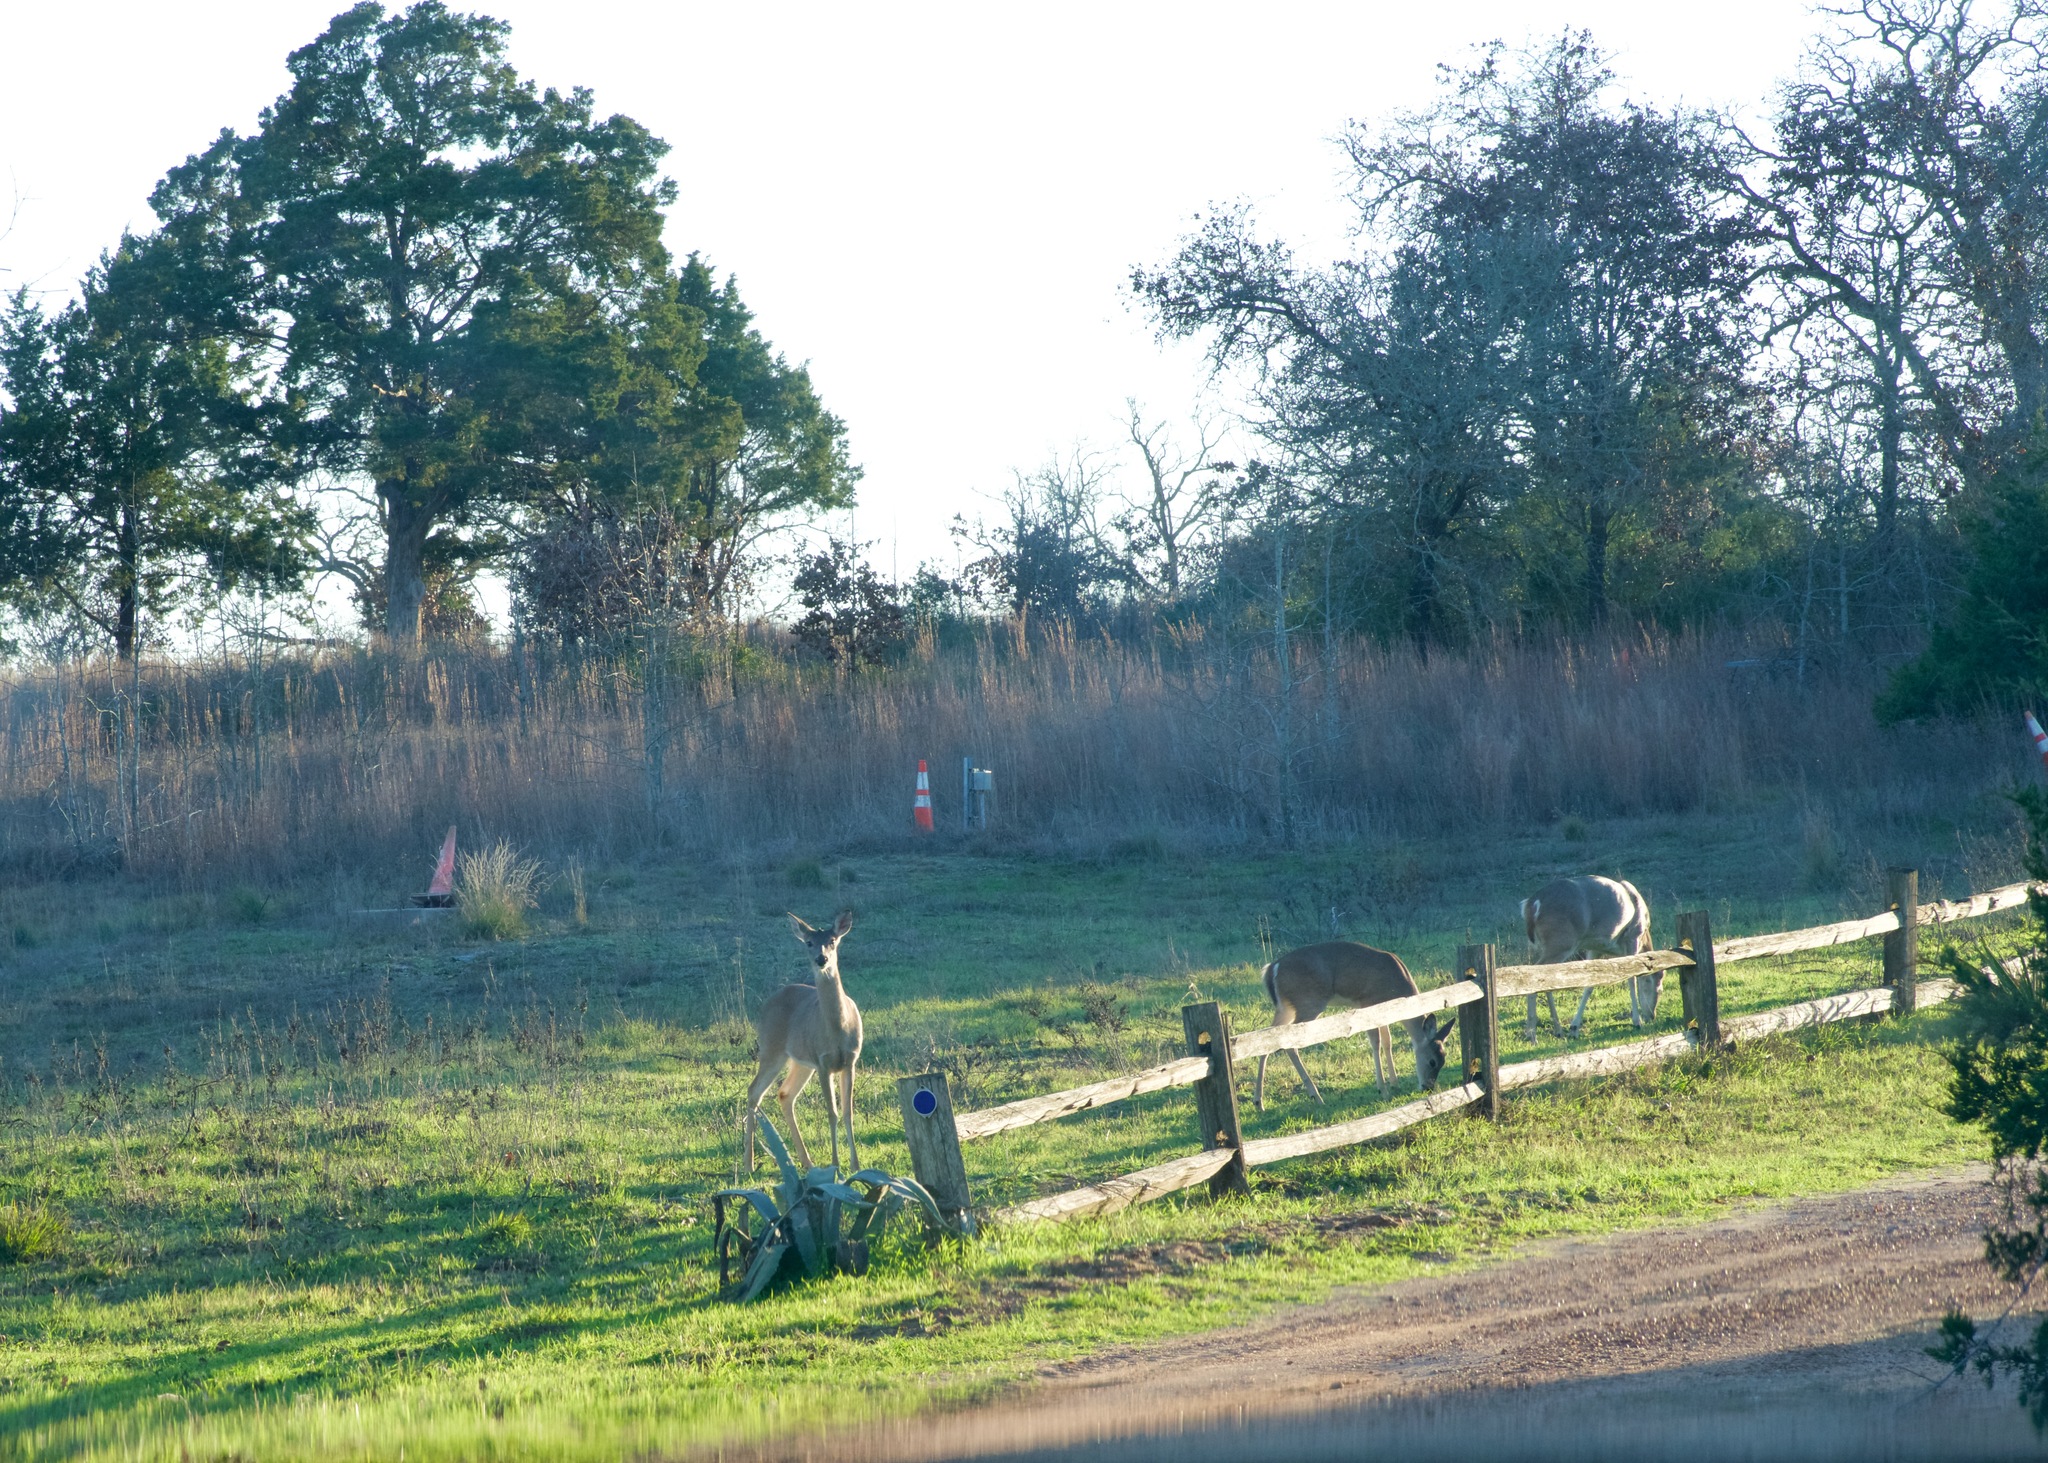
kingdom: Animalia
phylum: Chordata
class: Mammalia
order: Artiodactyla
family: Cervidae
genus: Odocoileus
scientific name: Odocoileus virginianus
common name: White-tailed deer
